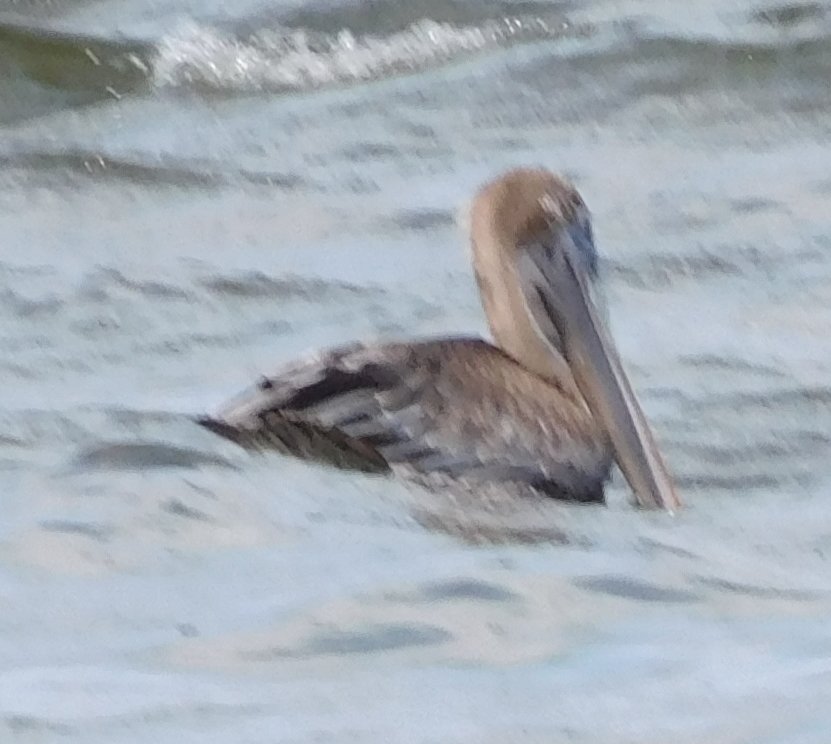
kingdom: Animalia
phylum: Chordata
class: Aves
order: Pelecaniformes
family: Pelecanidae
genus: Pelecanus
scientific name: Pelecanus occidentalis
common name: Brown pelican
